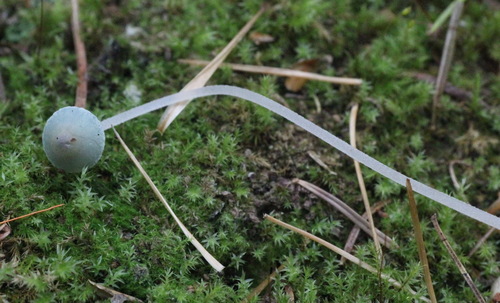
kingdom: Fungi
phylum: Basidiomycota
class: Agaricomycetes
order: Agaricales
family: Mycenaceae
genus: Mycena
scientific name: Mycena amicta
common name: Coldfoot bonnet
